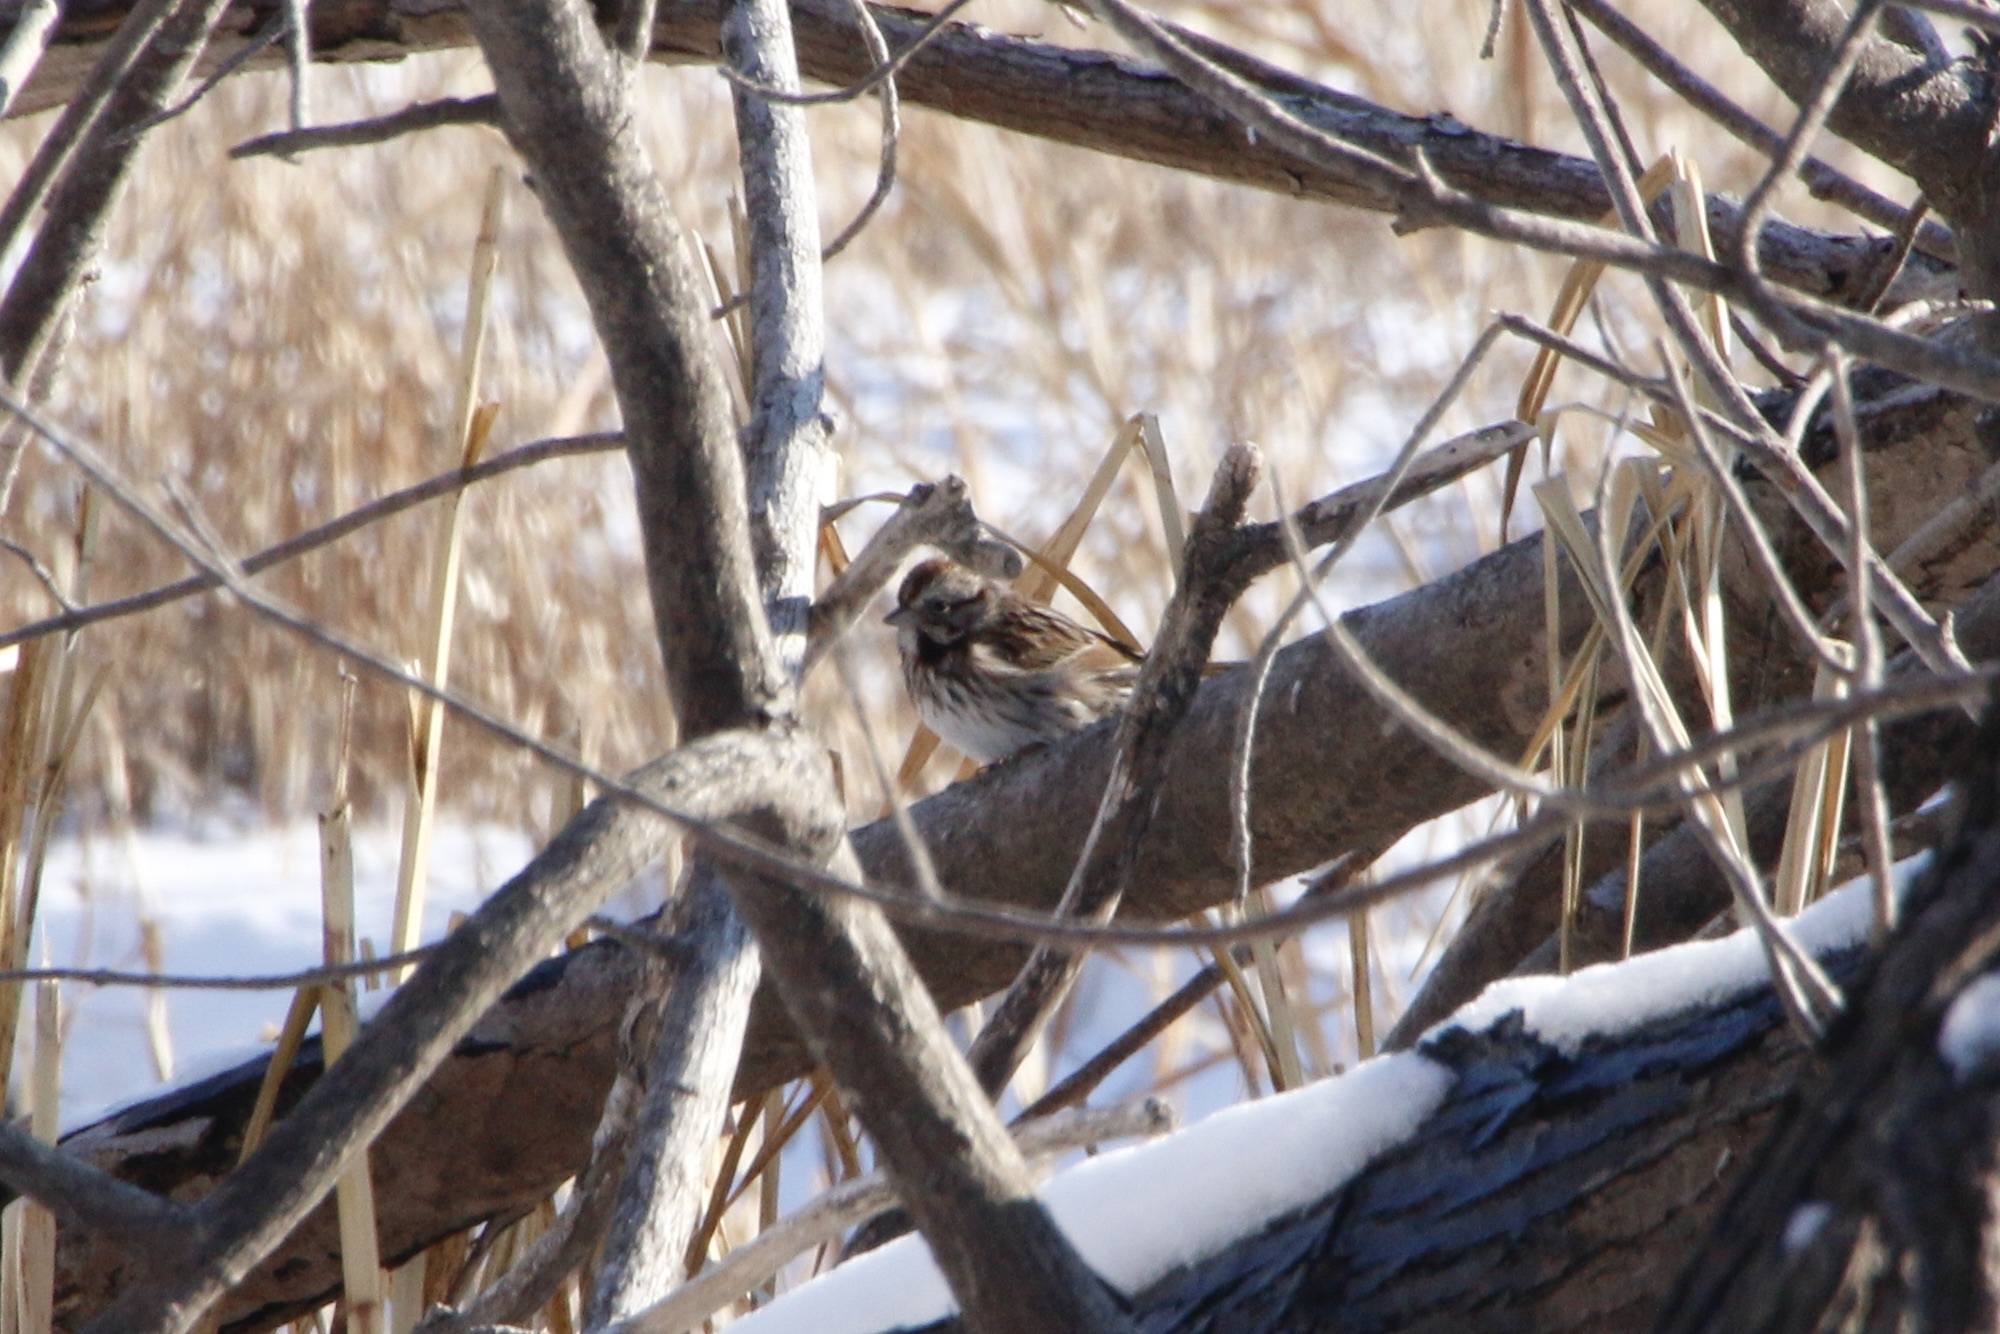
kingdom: Animalia
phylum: Chordata
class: Aves
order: Passeriformes
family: Passerellidae
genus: Melospiza
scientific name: Melospiza melodia
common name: Song sparrow
